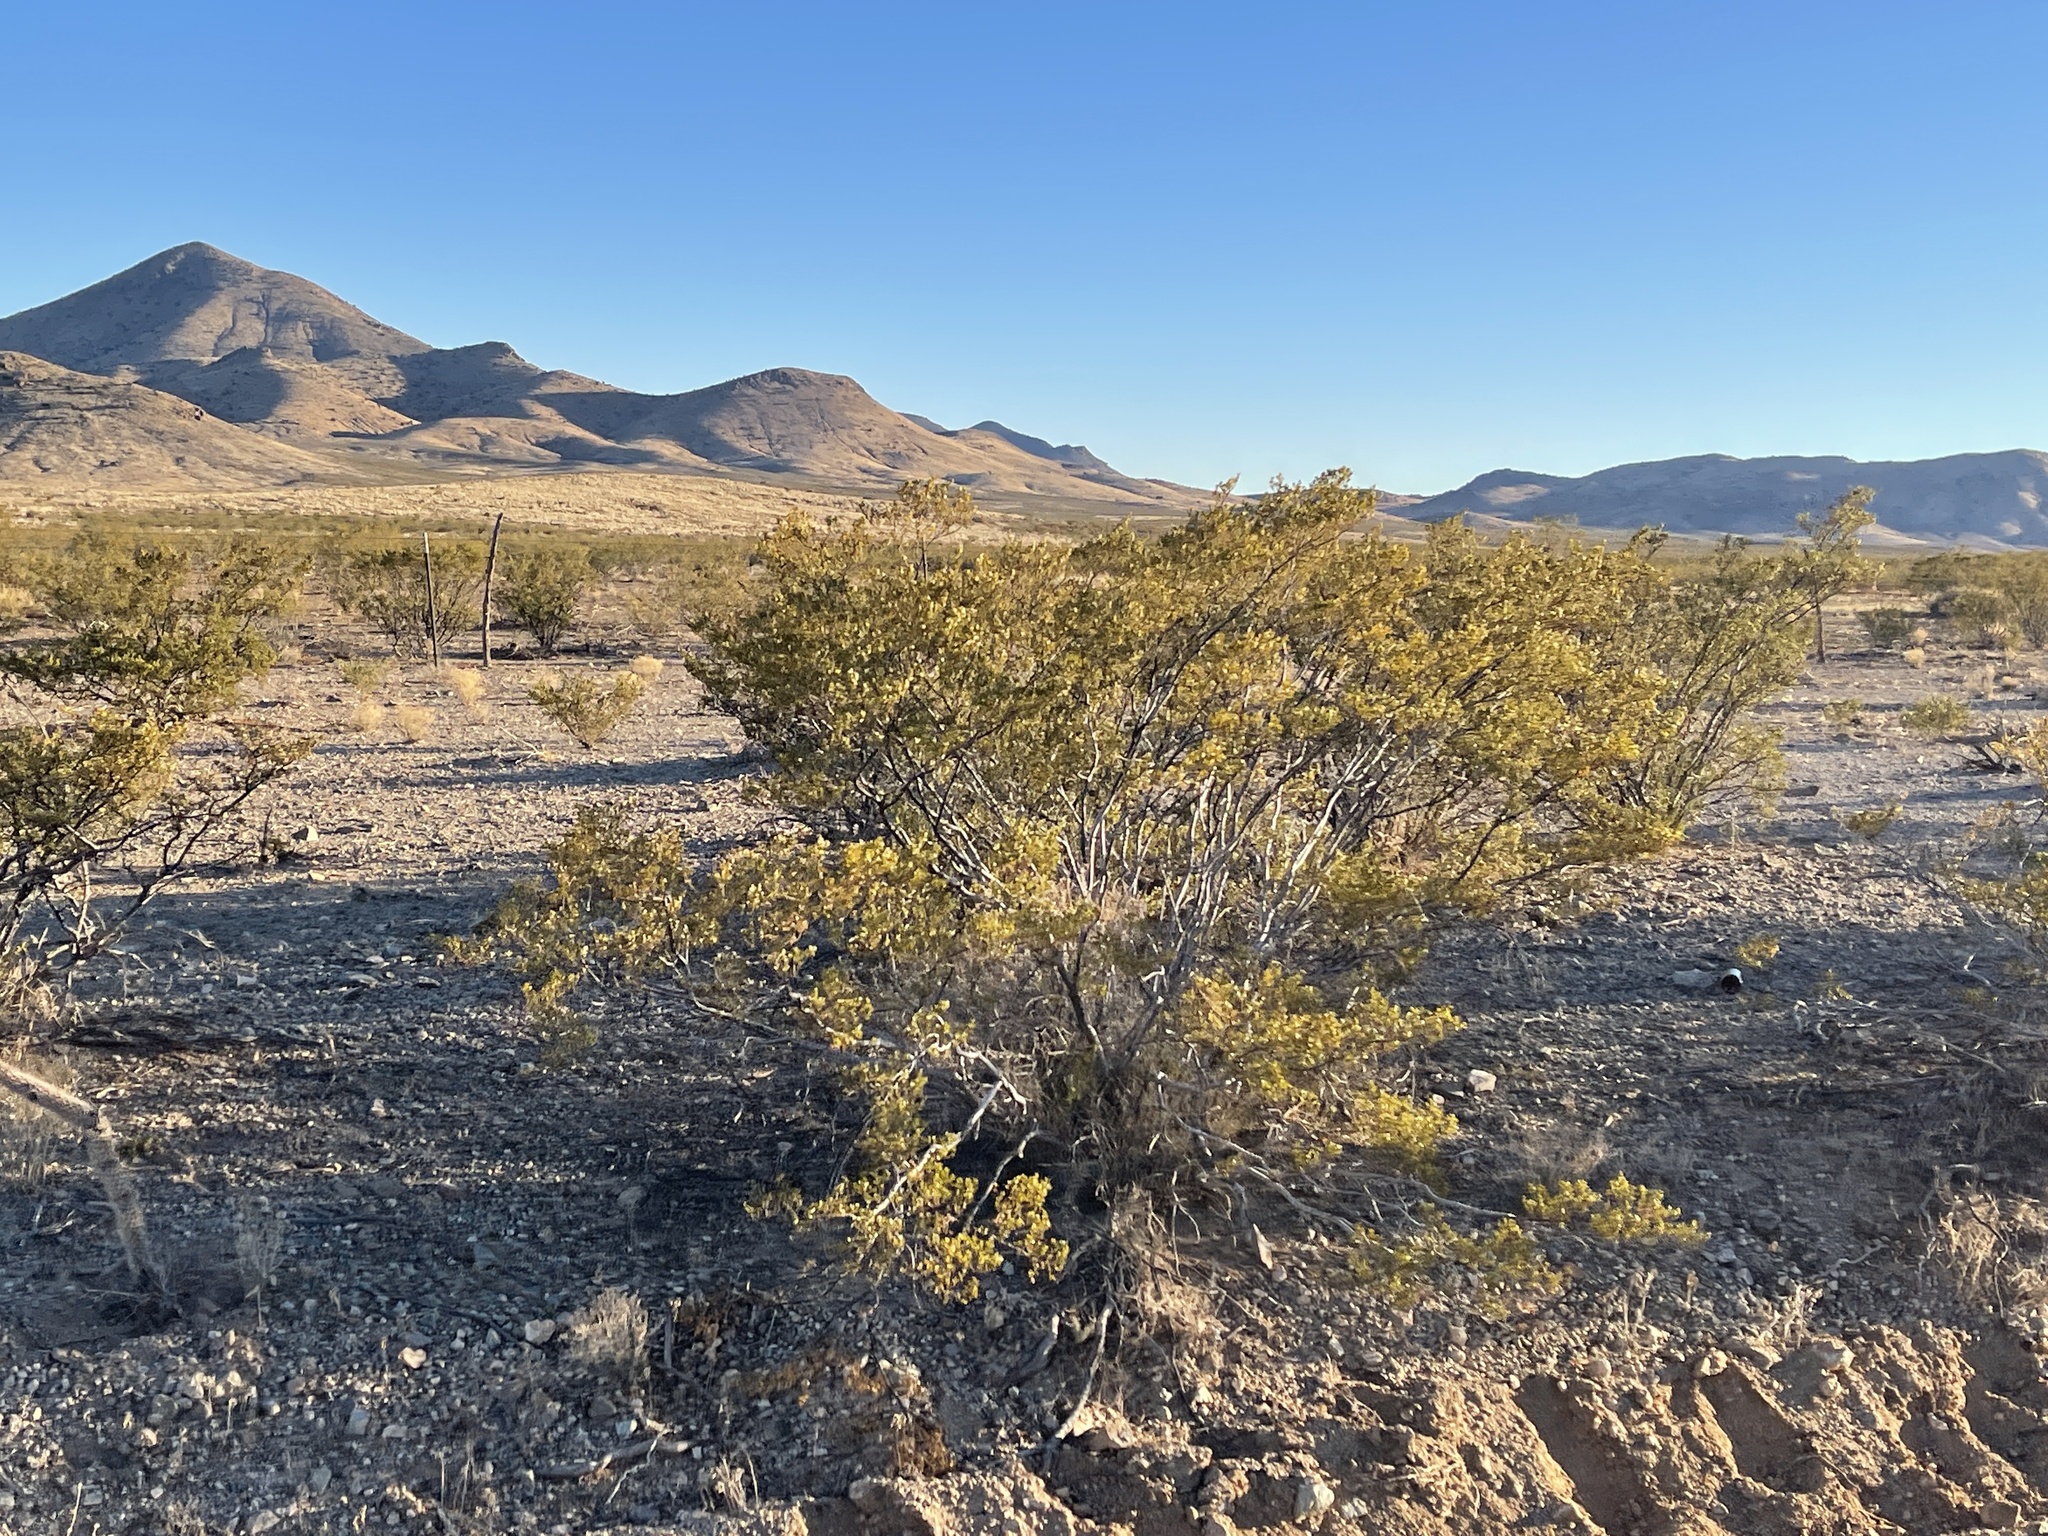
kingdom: Plantae
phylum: Tracheophyta
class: Magnoliopsida
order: Zygophyllales
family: Zygophyllaceae
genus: Larrea
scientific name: Larrea tridentata
